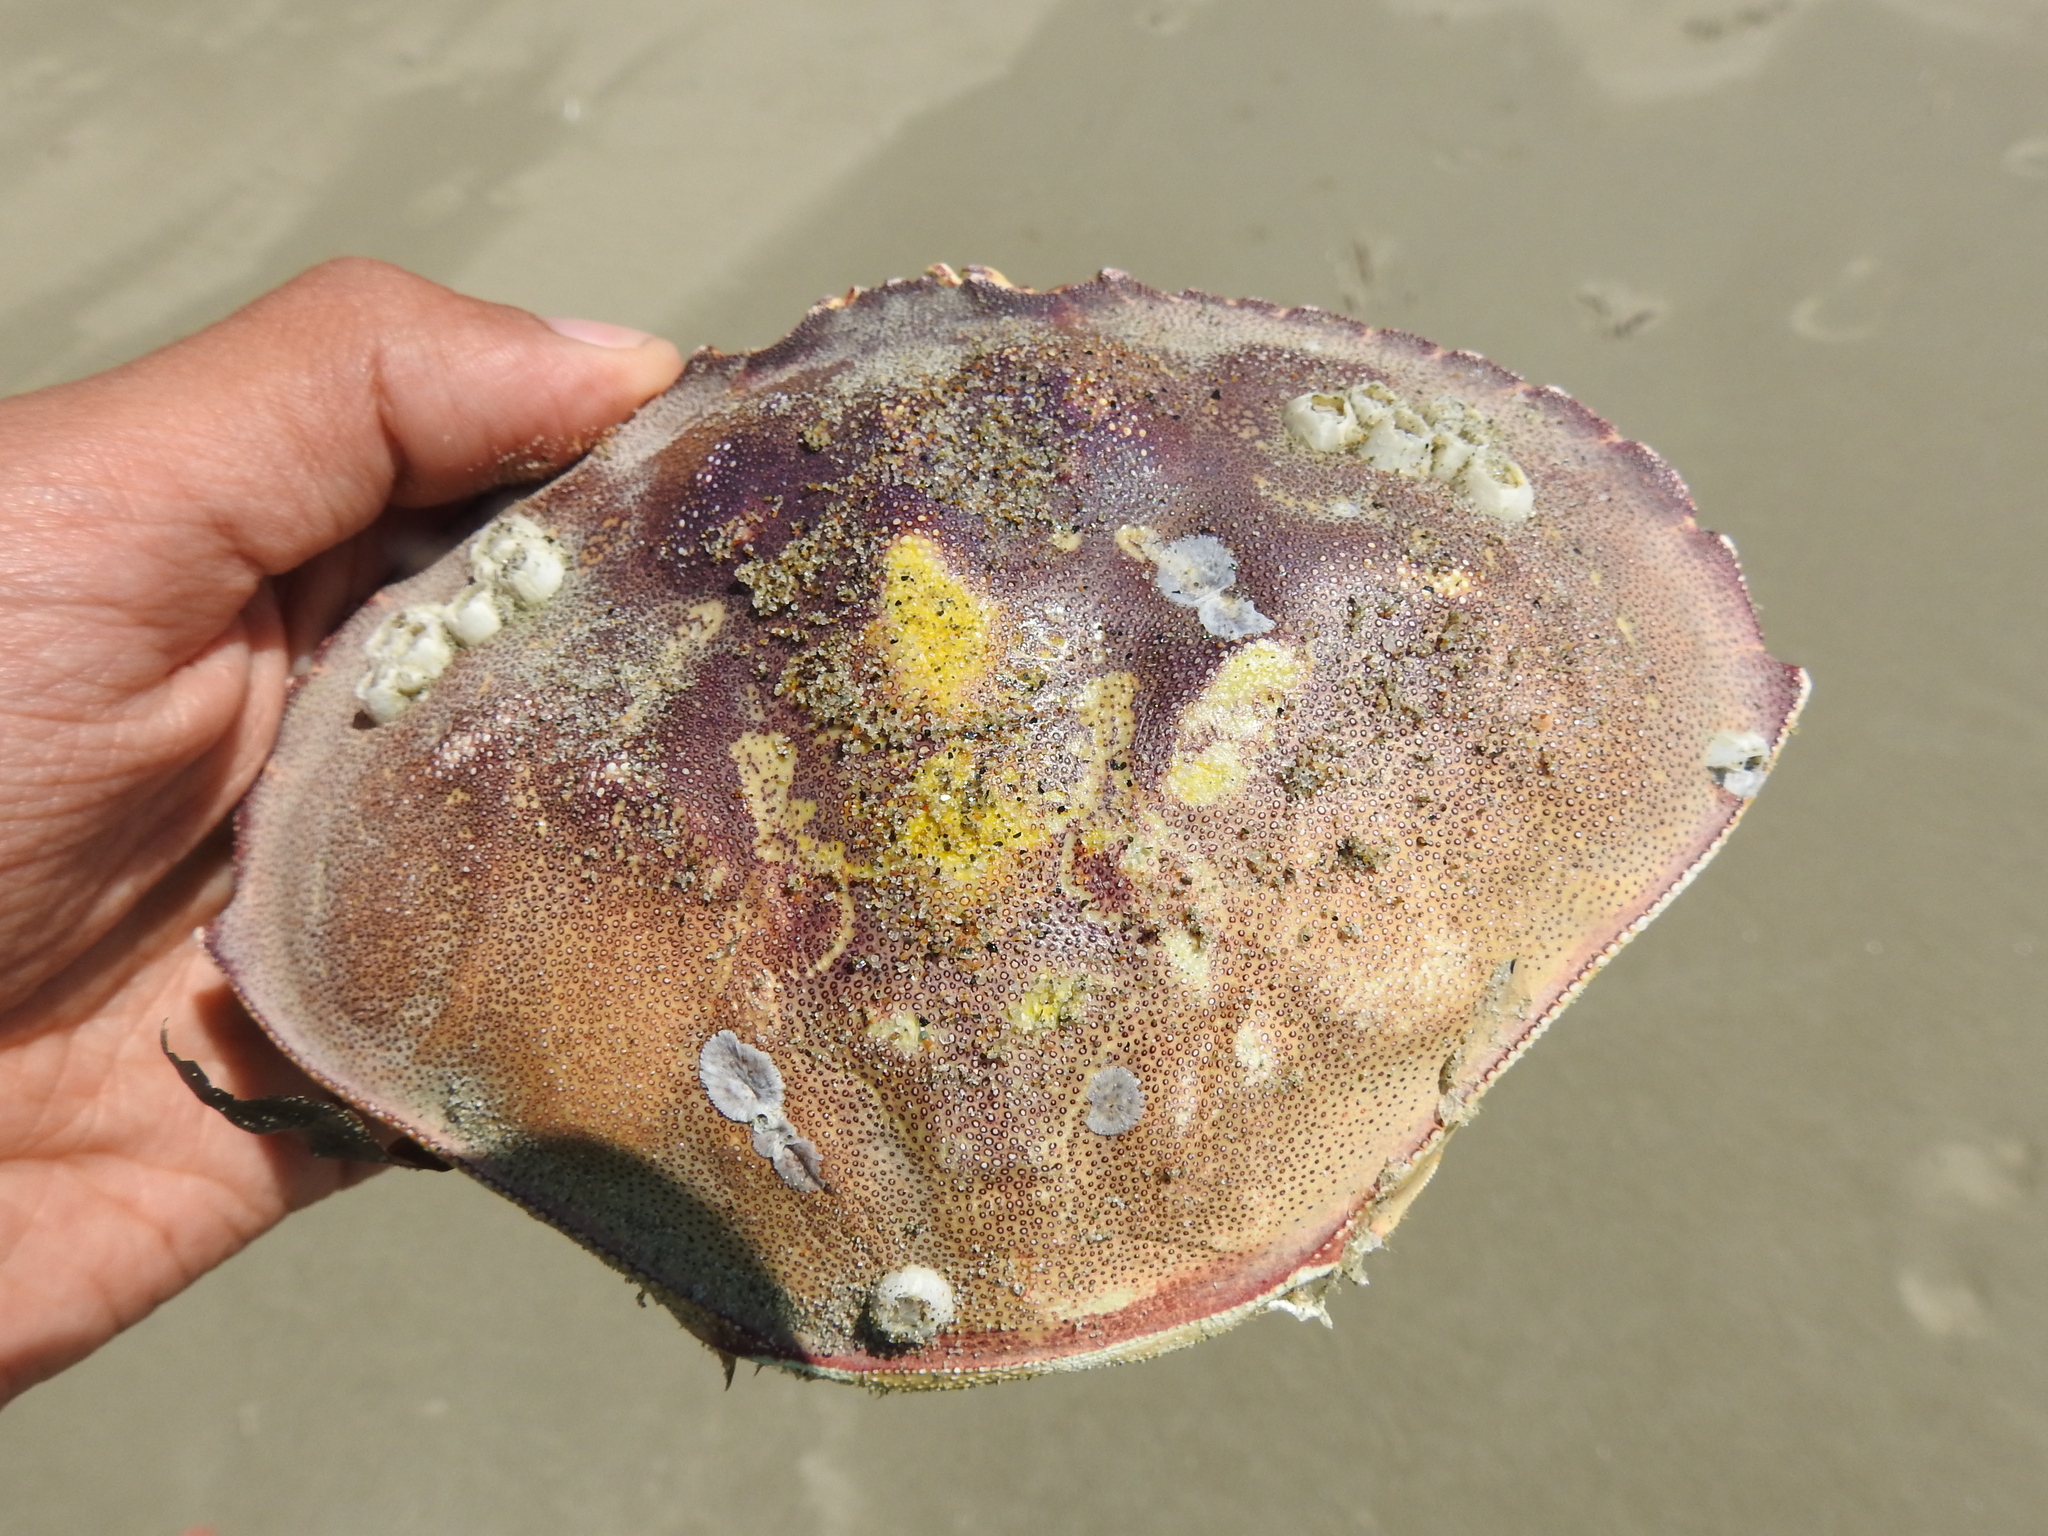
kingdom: Animalia
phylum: Arthropoda
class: Malacostraca
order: Decapoda
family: Cancridae
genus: Metacarcinus
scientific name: Metacarcinus magister
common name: Californian crab
